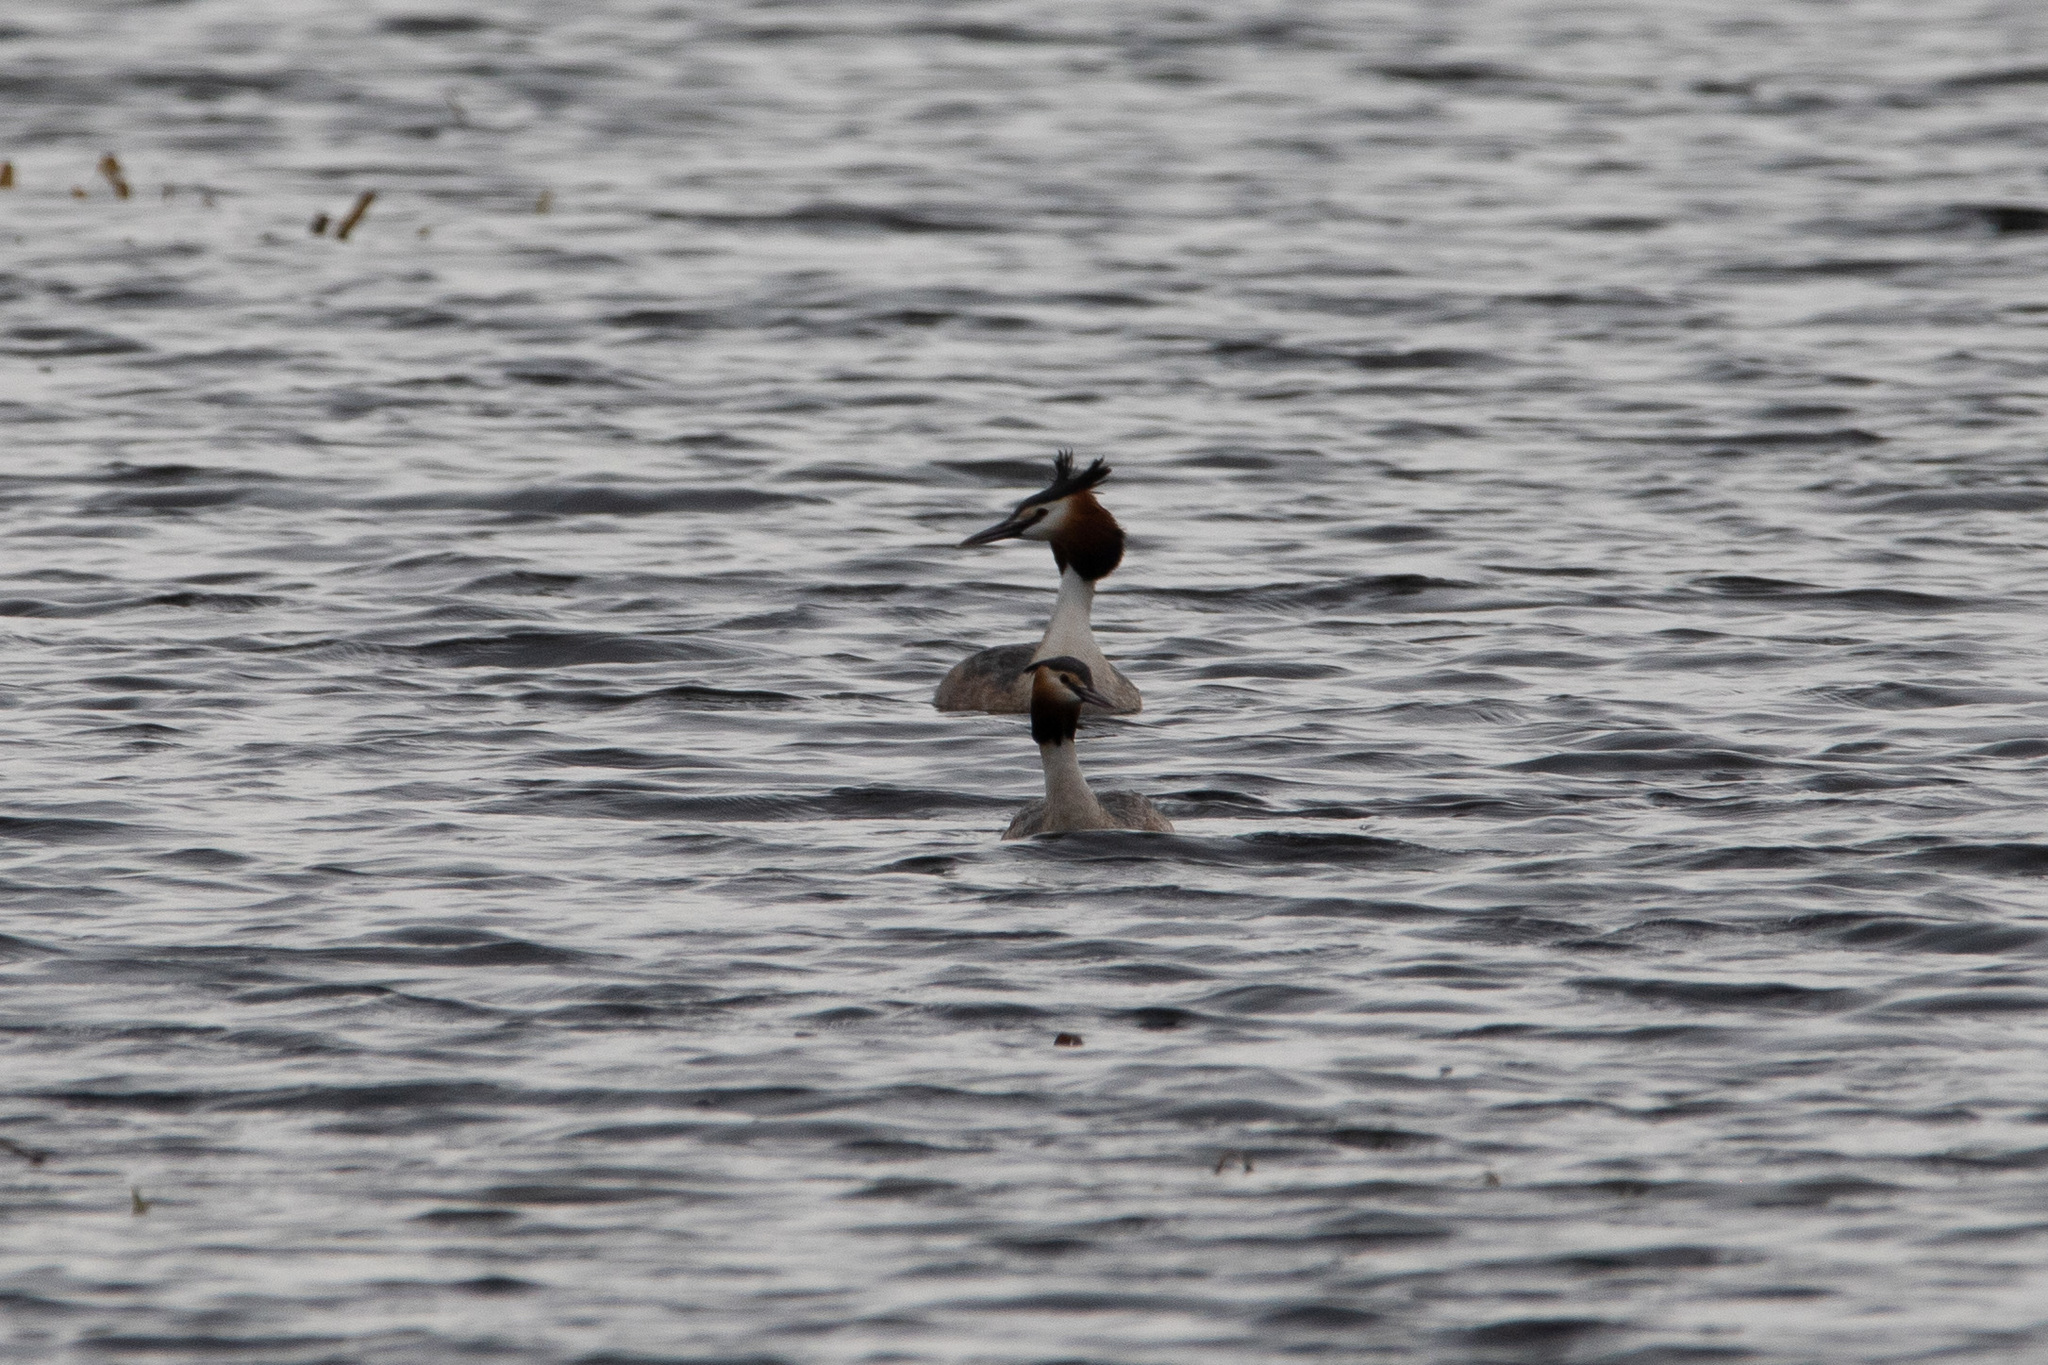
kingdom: Animalia
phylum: Chordata
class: Aves
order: Podicipediformes
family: Podicipedidae
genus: Podiceps
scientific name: Podiceps cristatus
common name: Great crested grebe
